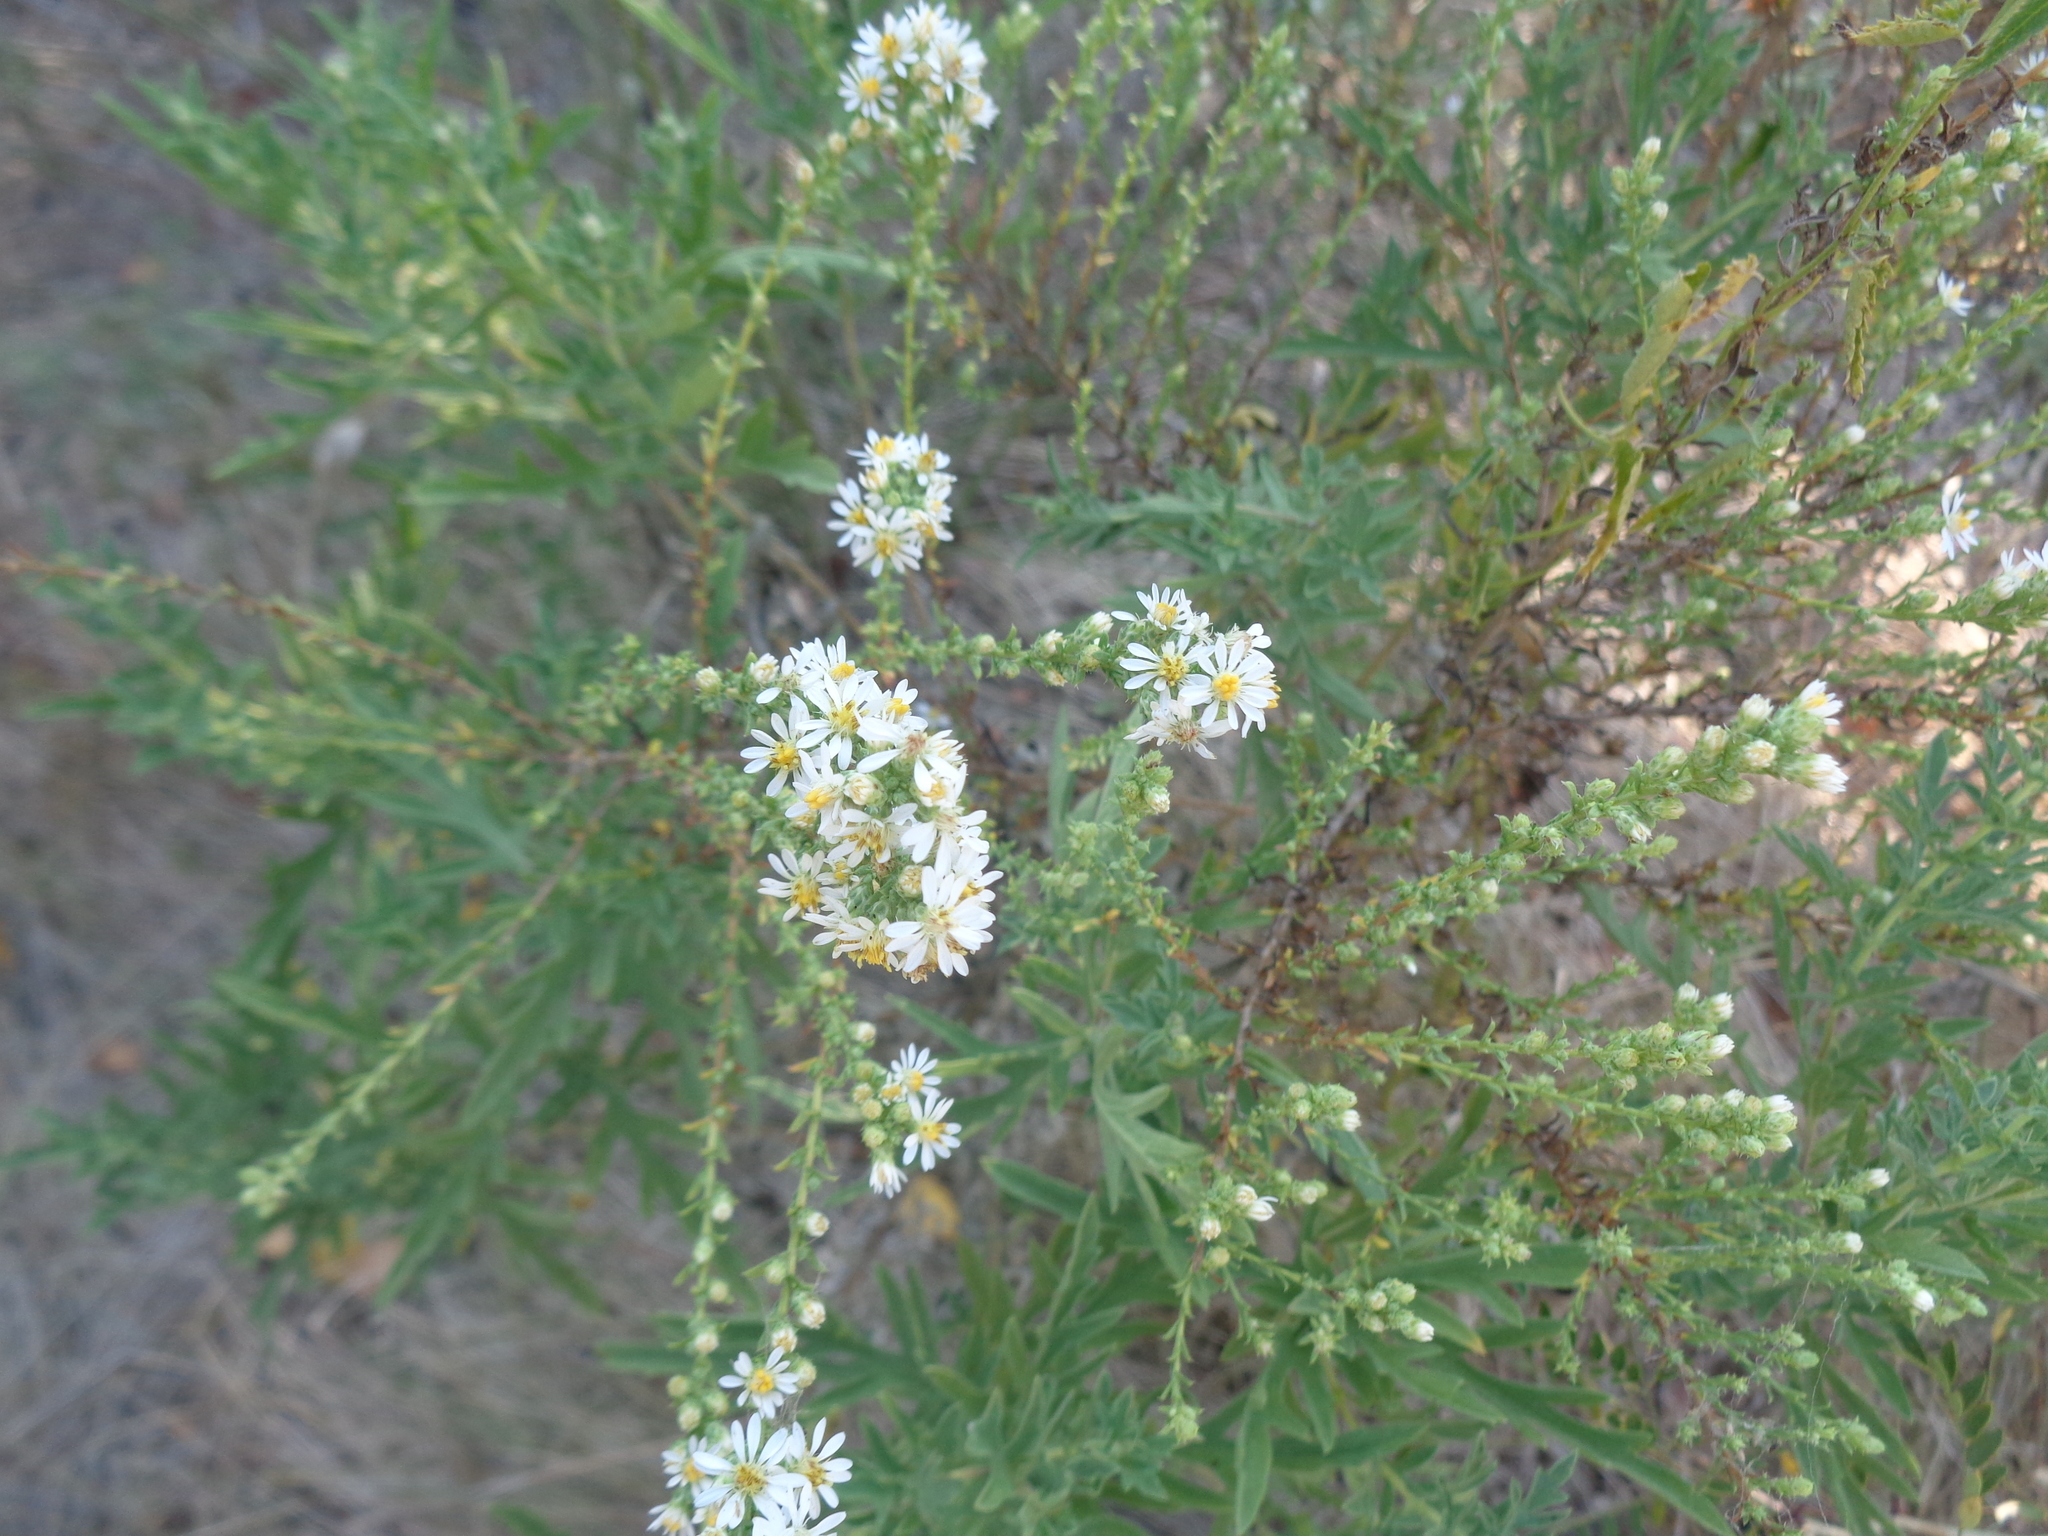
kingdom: Plantae
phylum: Tracheophyta
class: Magnoliopsida
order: Asterales
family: Asteraceae
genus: Symphyotrichum
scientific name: Symphyotrichum ericoides
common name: Heath aster
